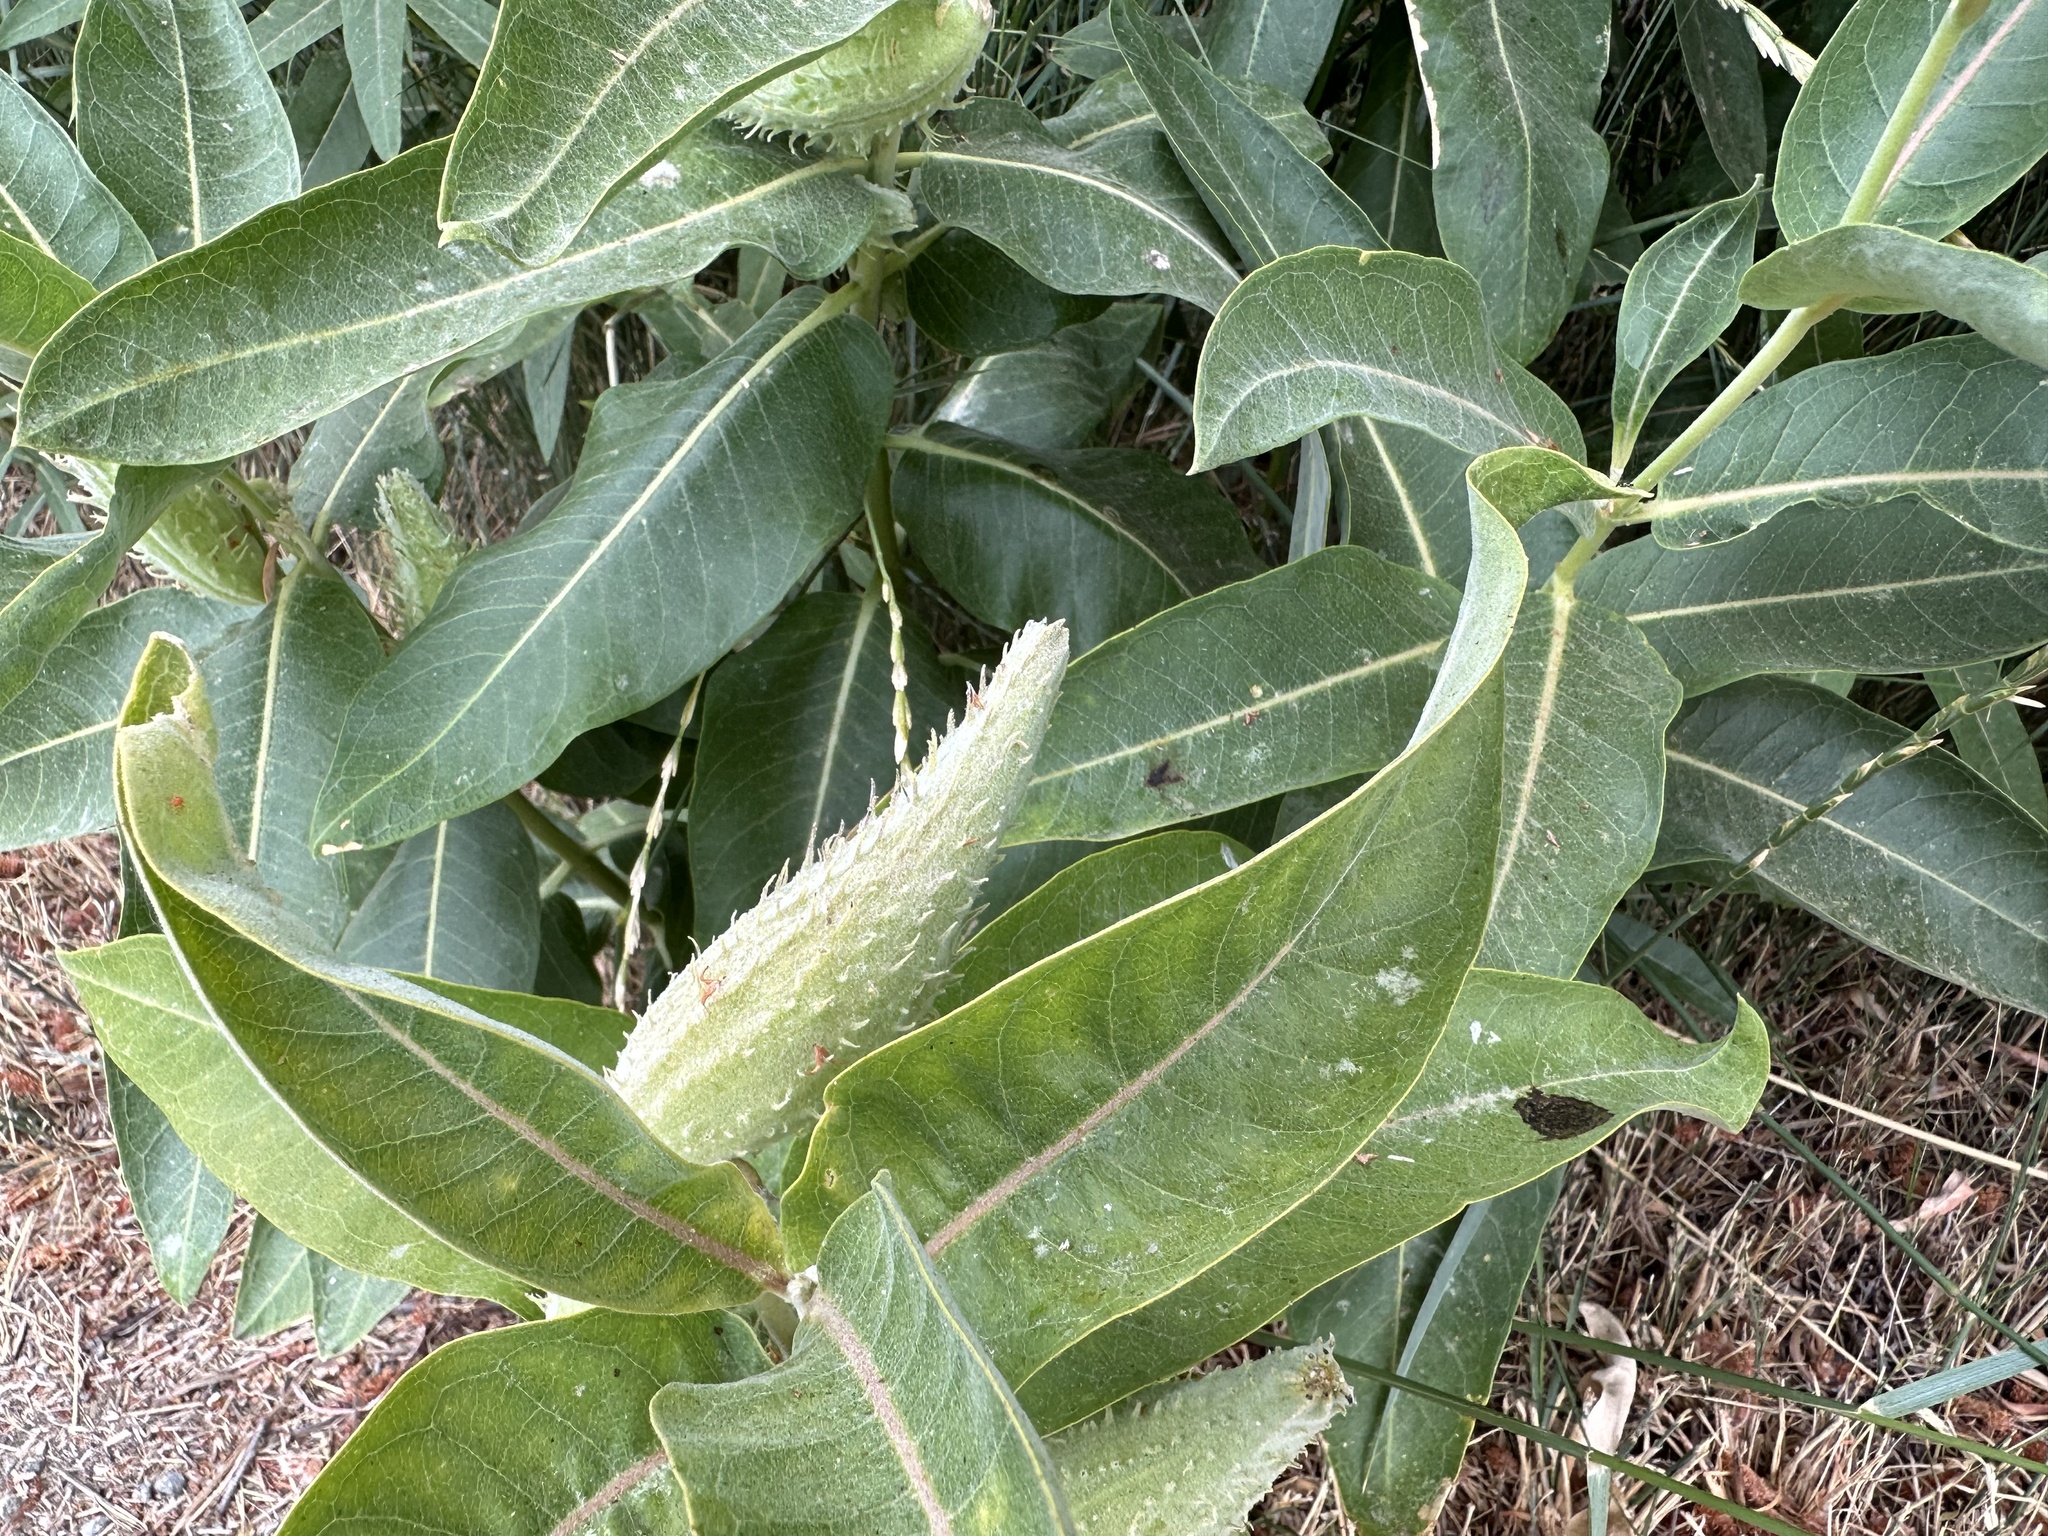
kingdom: Plantae
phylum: Tracheophyta
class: Magnoliopsida
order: Gentianales
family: Apocynaceae
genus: Asclepias
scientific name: Asclepias speciosa
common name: Showy milkweed
